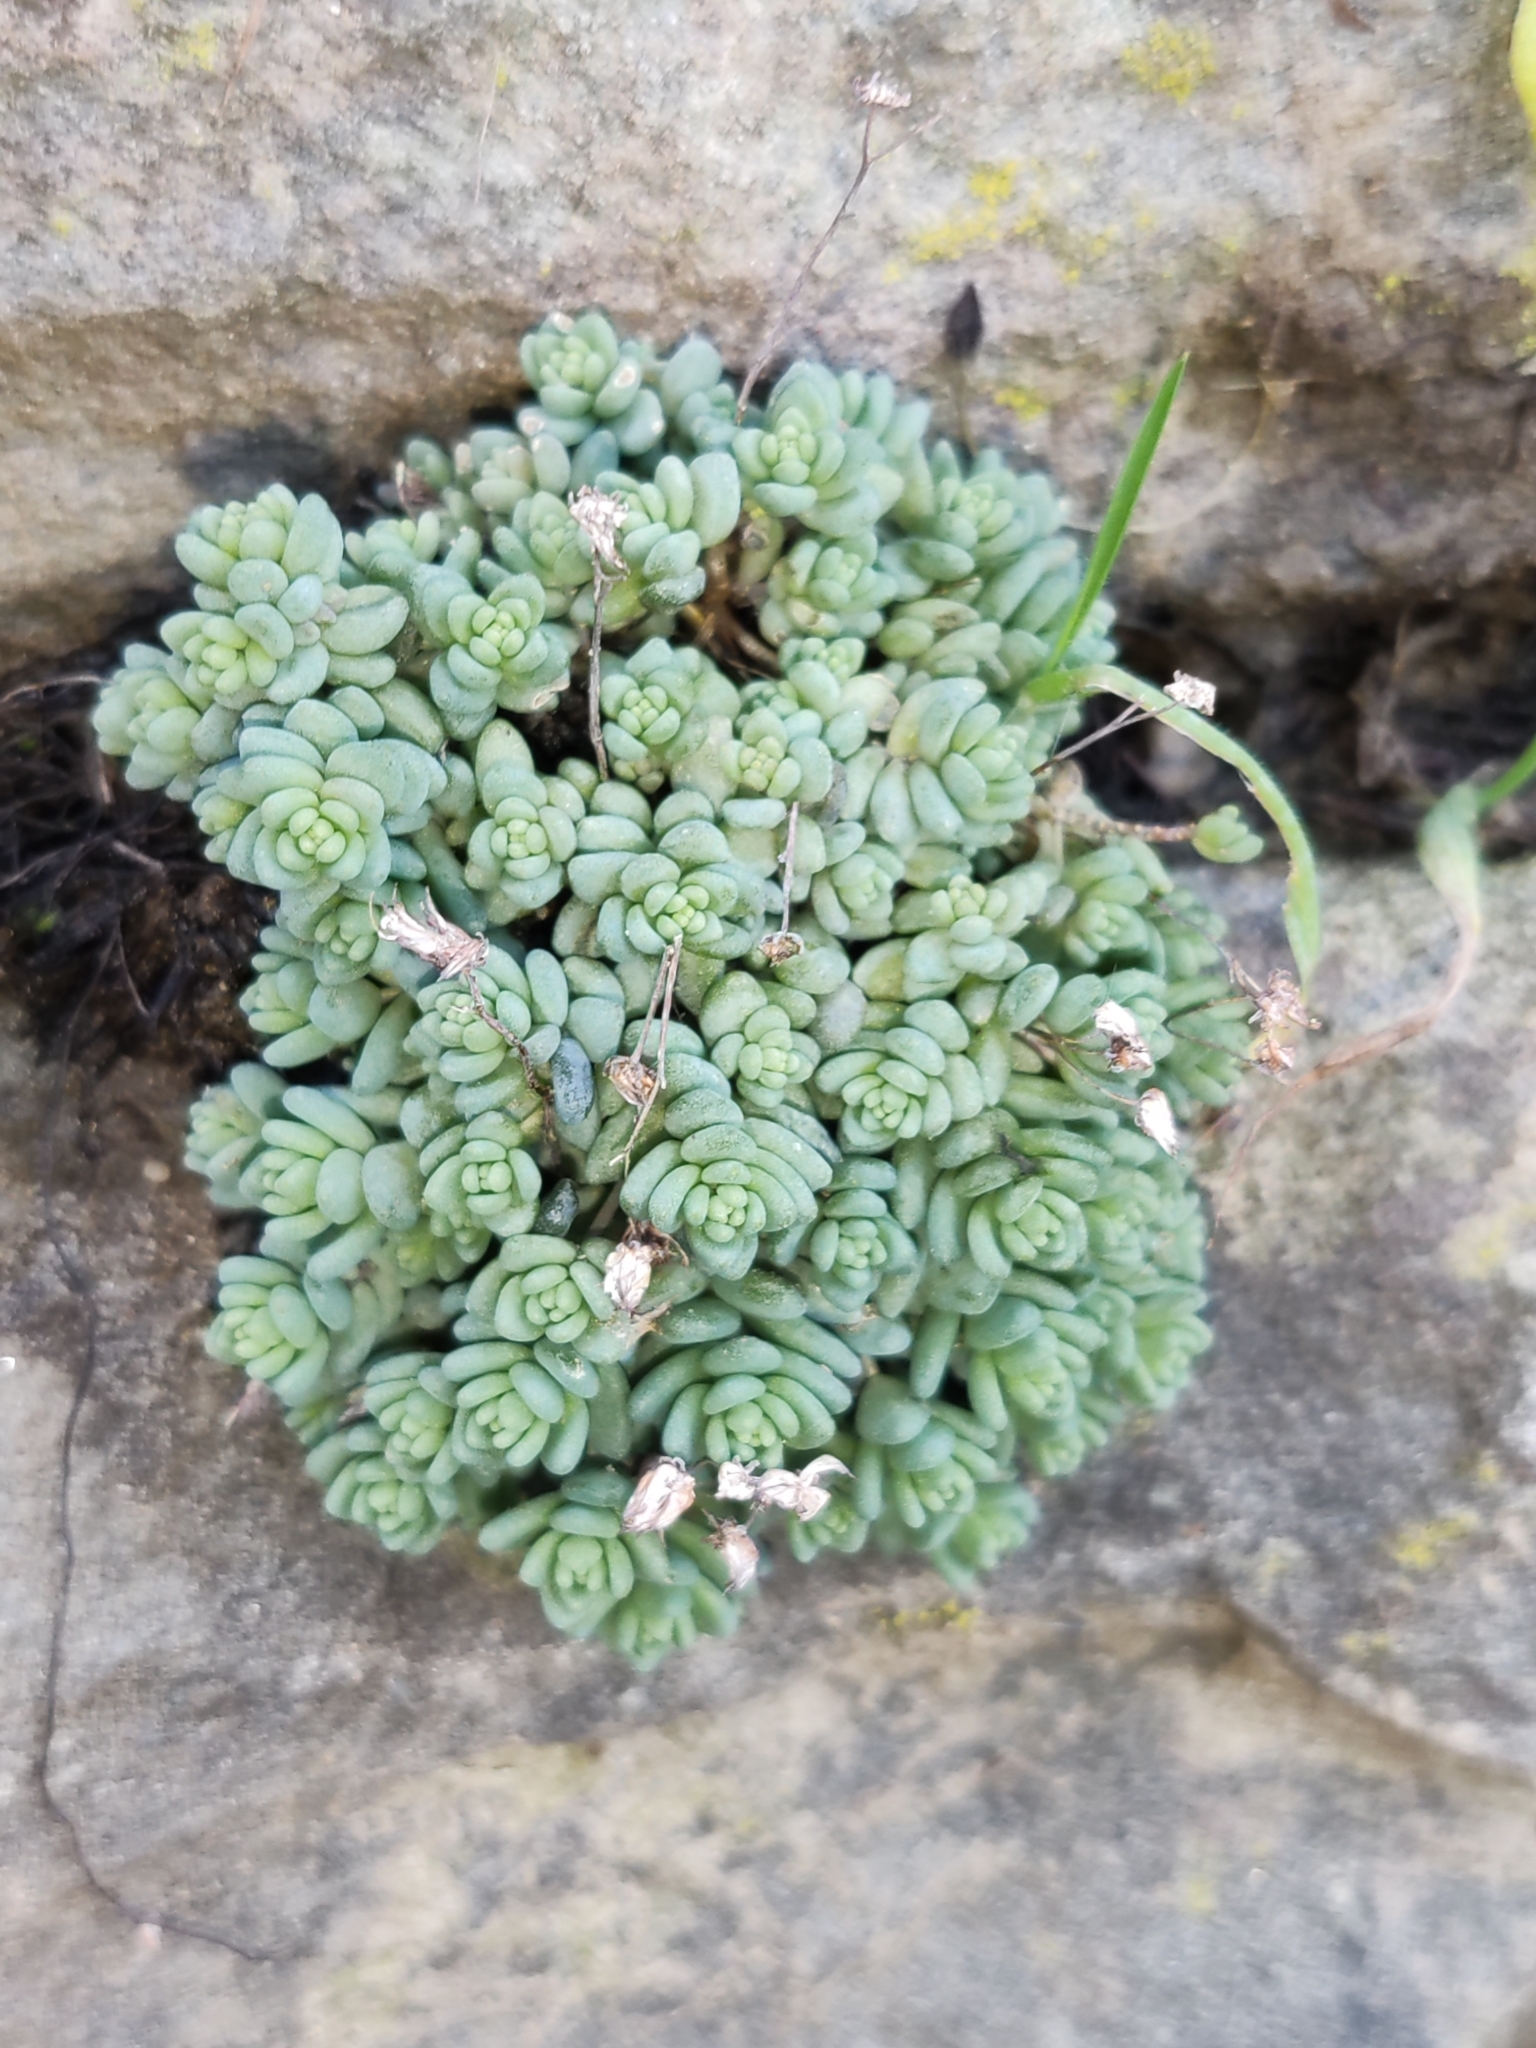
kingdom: Plantae
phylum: Tracheophyta
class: Magnoliopsida
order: Saxifragales
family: Crassulaceae
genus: Sedum
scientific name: Sedum dasyphyllum
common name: Thick-leaf stonecrop
